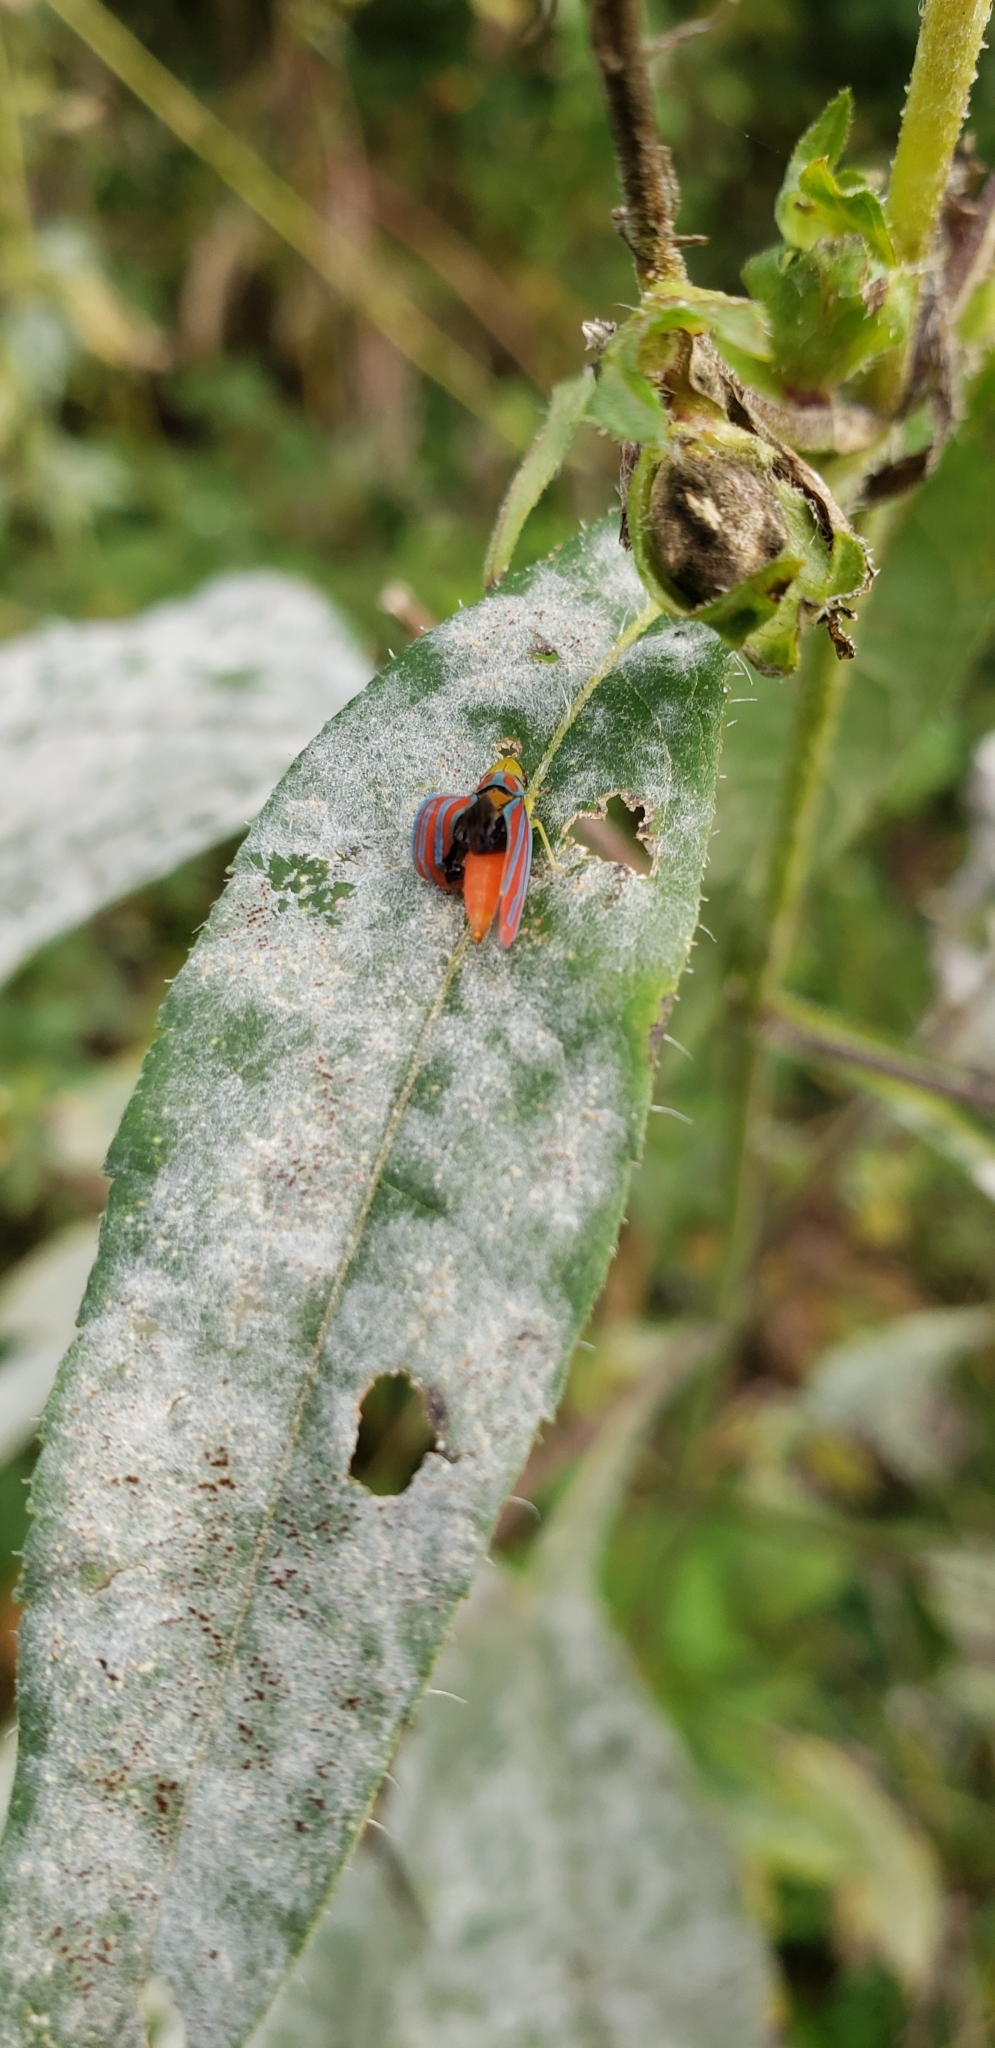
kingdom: Animalia
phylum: Arthropoda
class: Insecta
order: Hemiptera
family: Cicadellidae
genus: Graphocephala
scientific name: Graphocephala coccinea
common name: Candy-striped leafhopper
